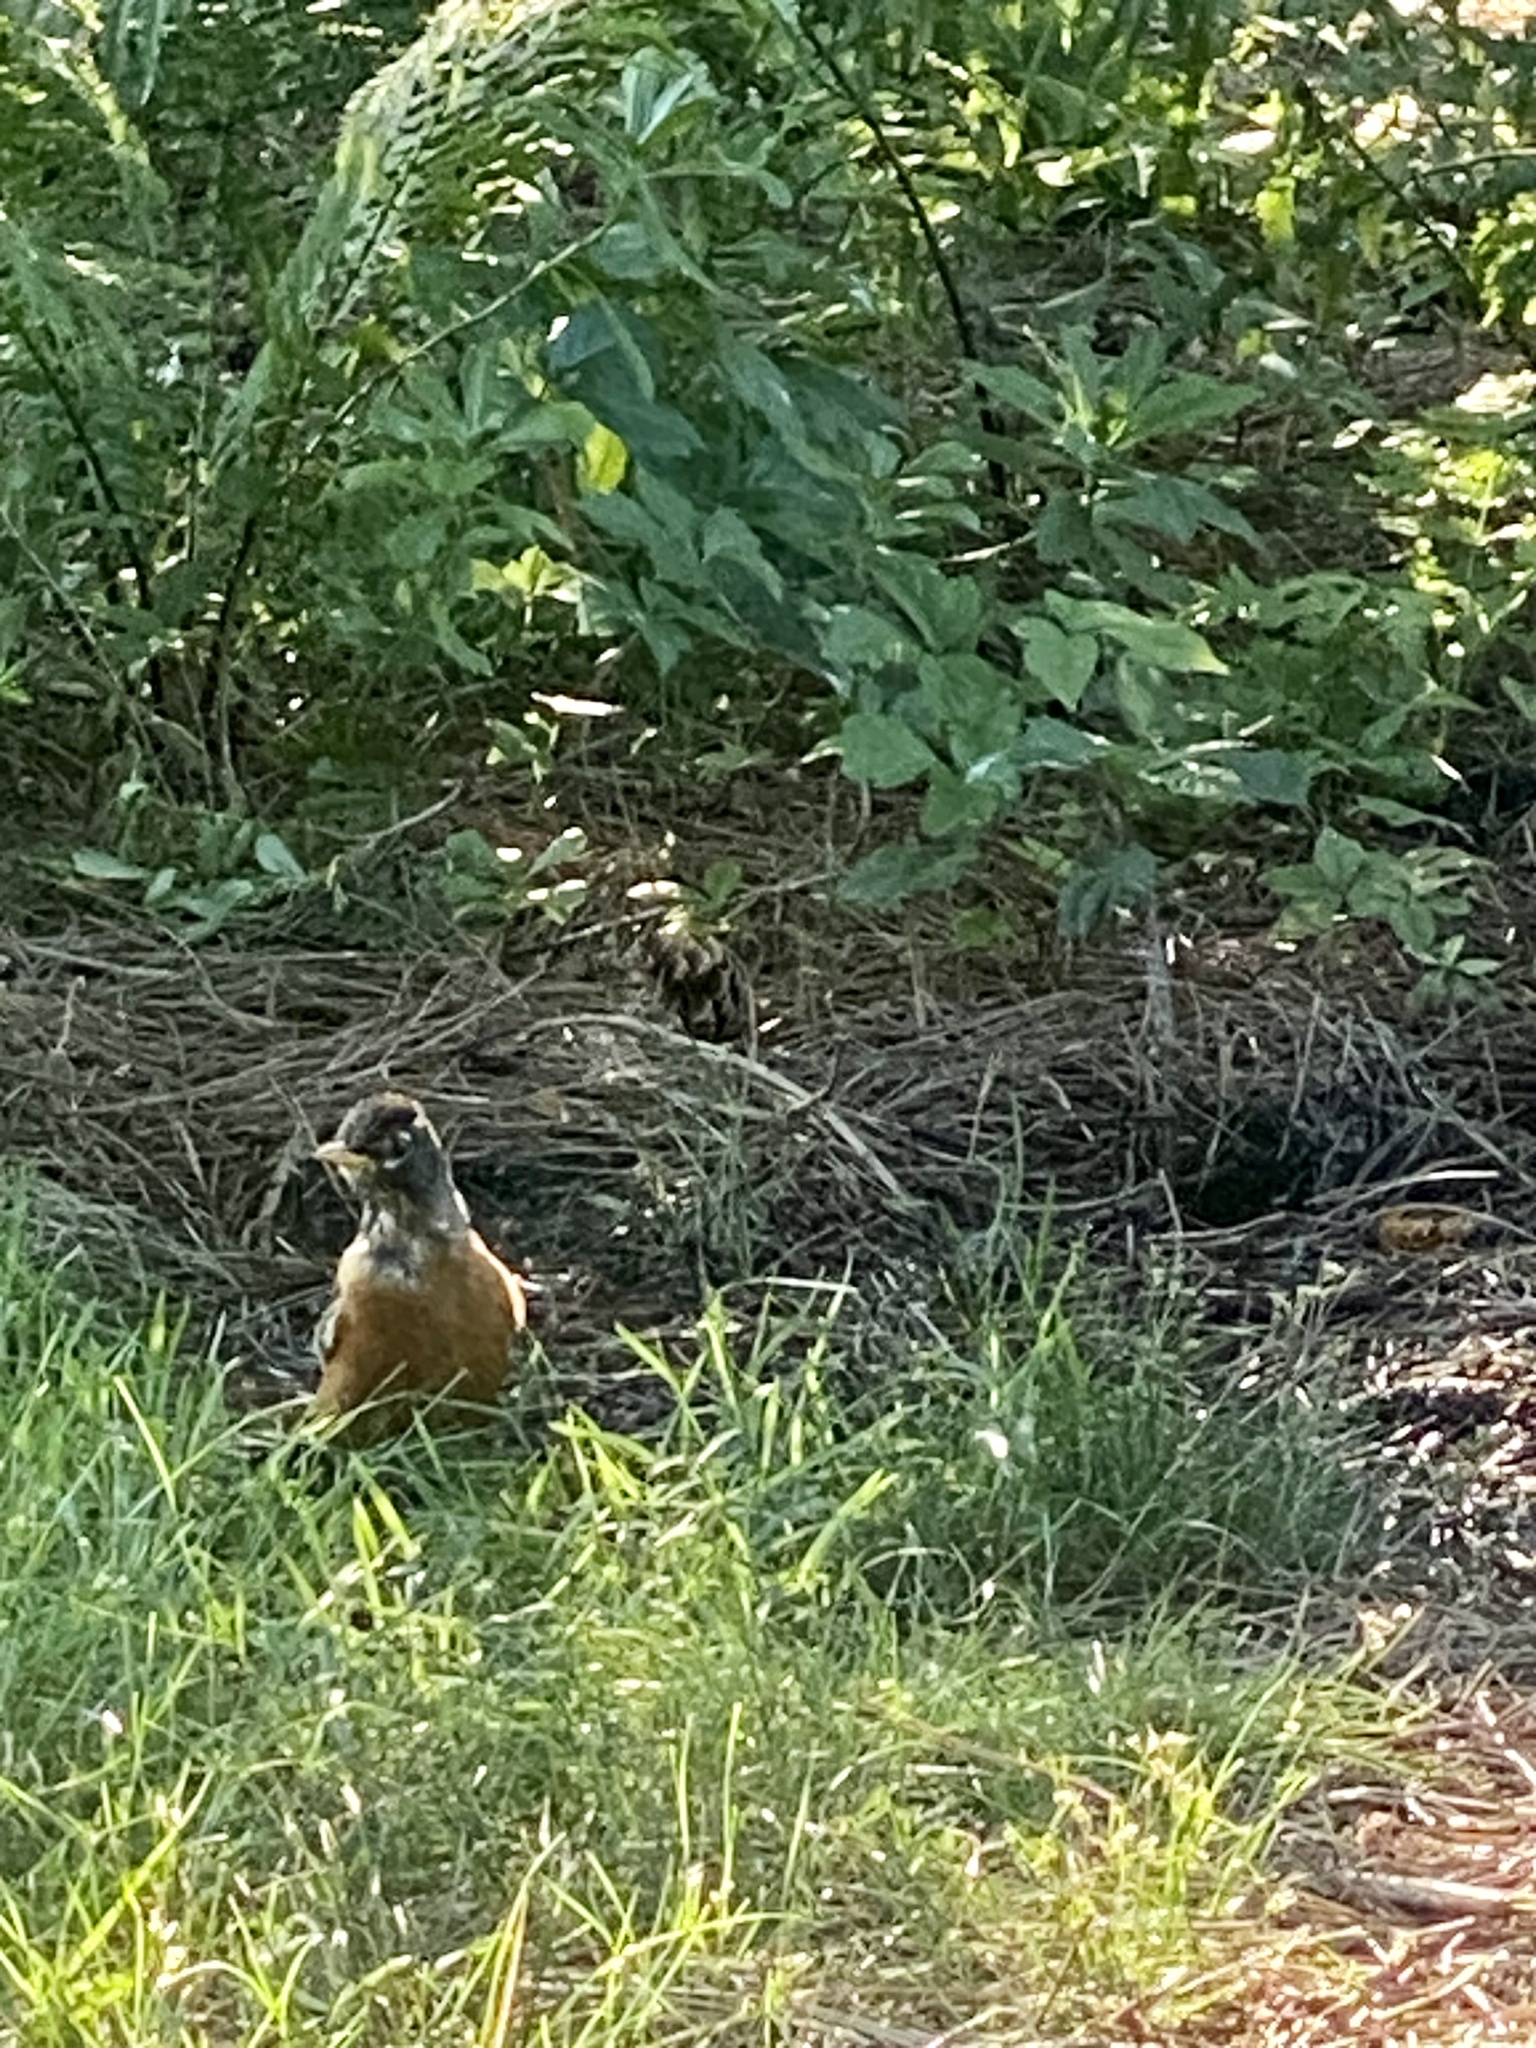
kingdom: Animalia
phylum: Chordata
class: Aves
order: Passeriformes
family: Turdidae
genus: Turdus
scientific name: Turdus migratorius
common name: American robin
